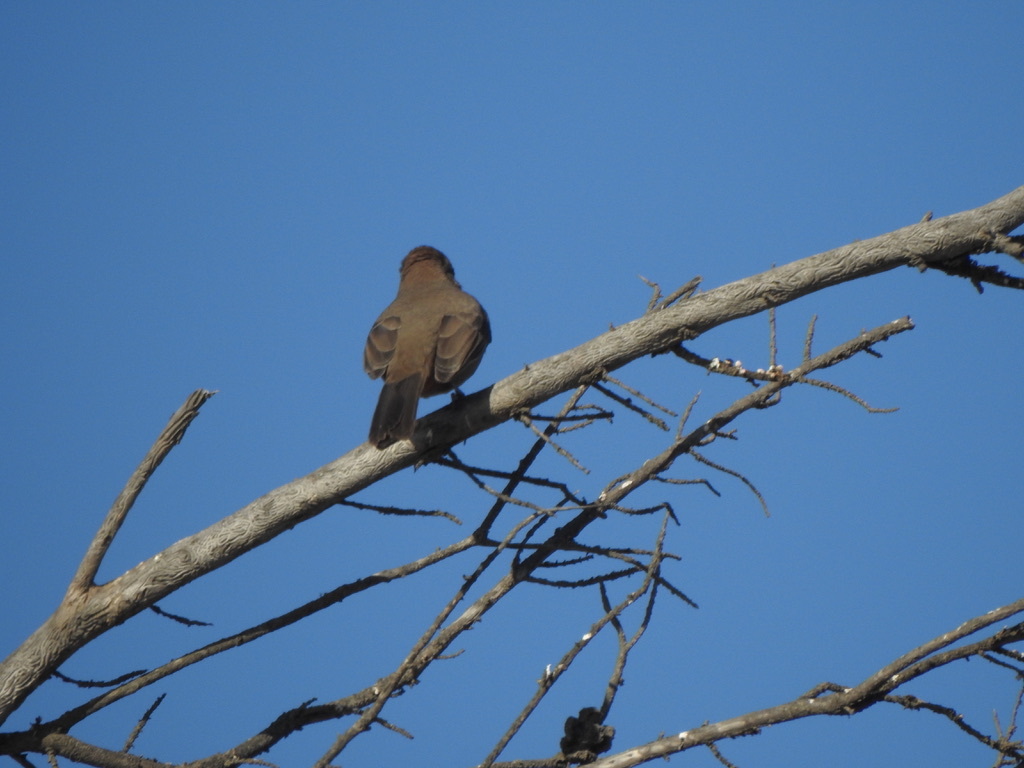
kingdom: Animalia
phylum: Chordata
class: Aves
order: Passeriformes
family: Passerellidae
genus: Melozone
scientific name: Melozone crissalis
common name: California towhee
